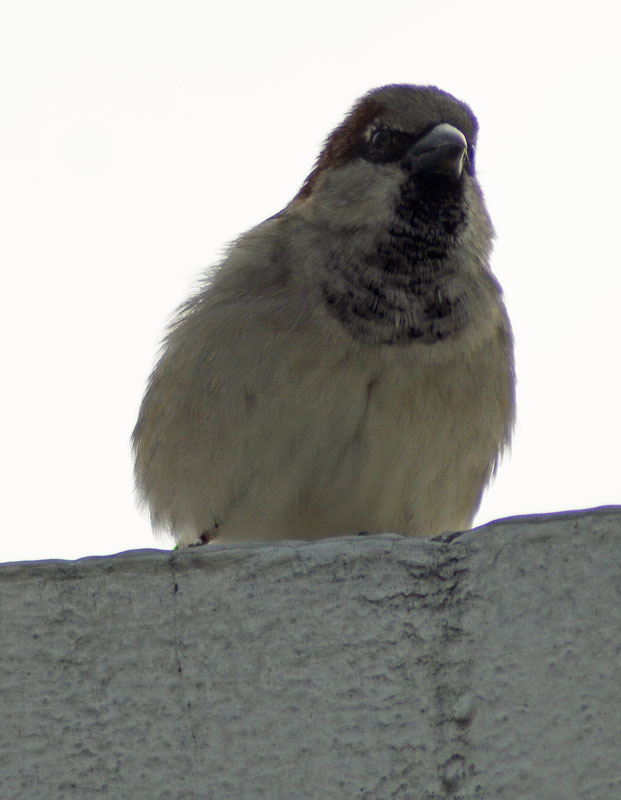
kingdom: Animalia
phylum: Chordata
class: Aves
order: Passeriformes
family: Passeridae
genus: Passer
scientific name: Passer domesticus
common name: House sparrow
